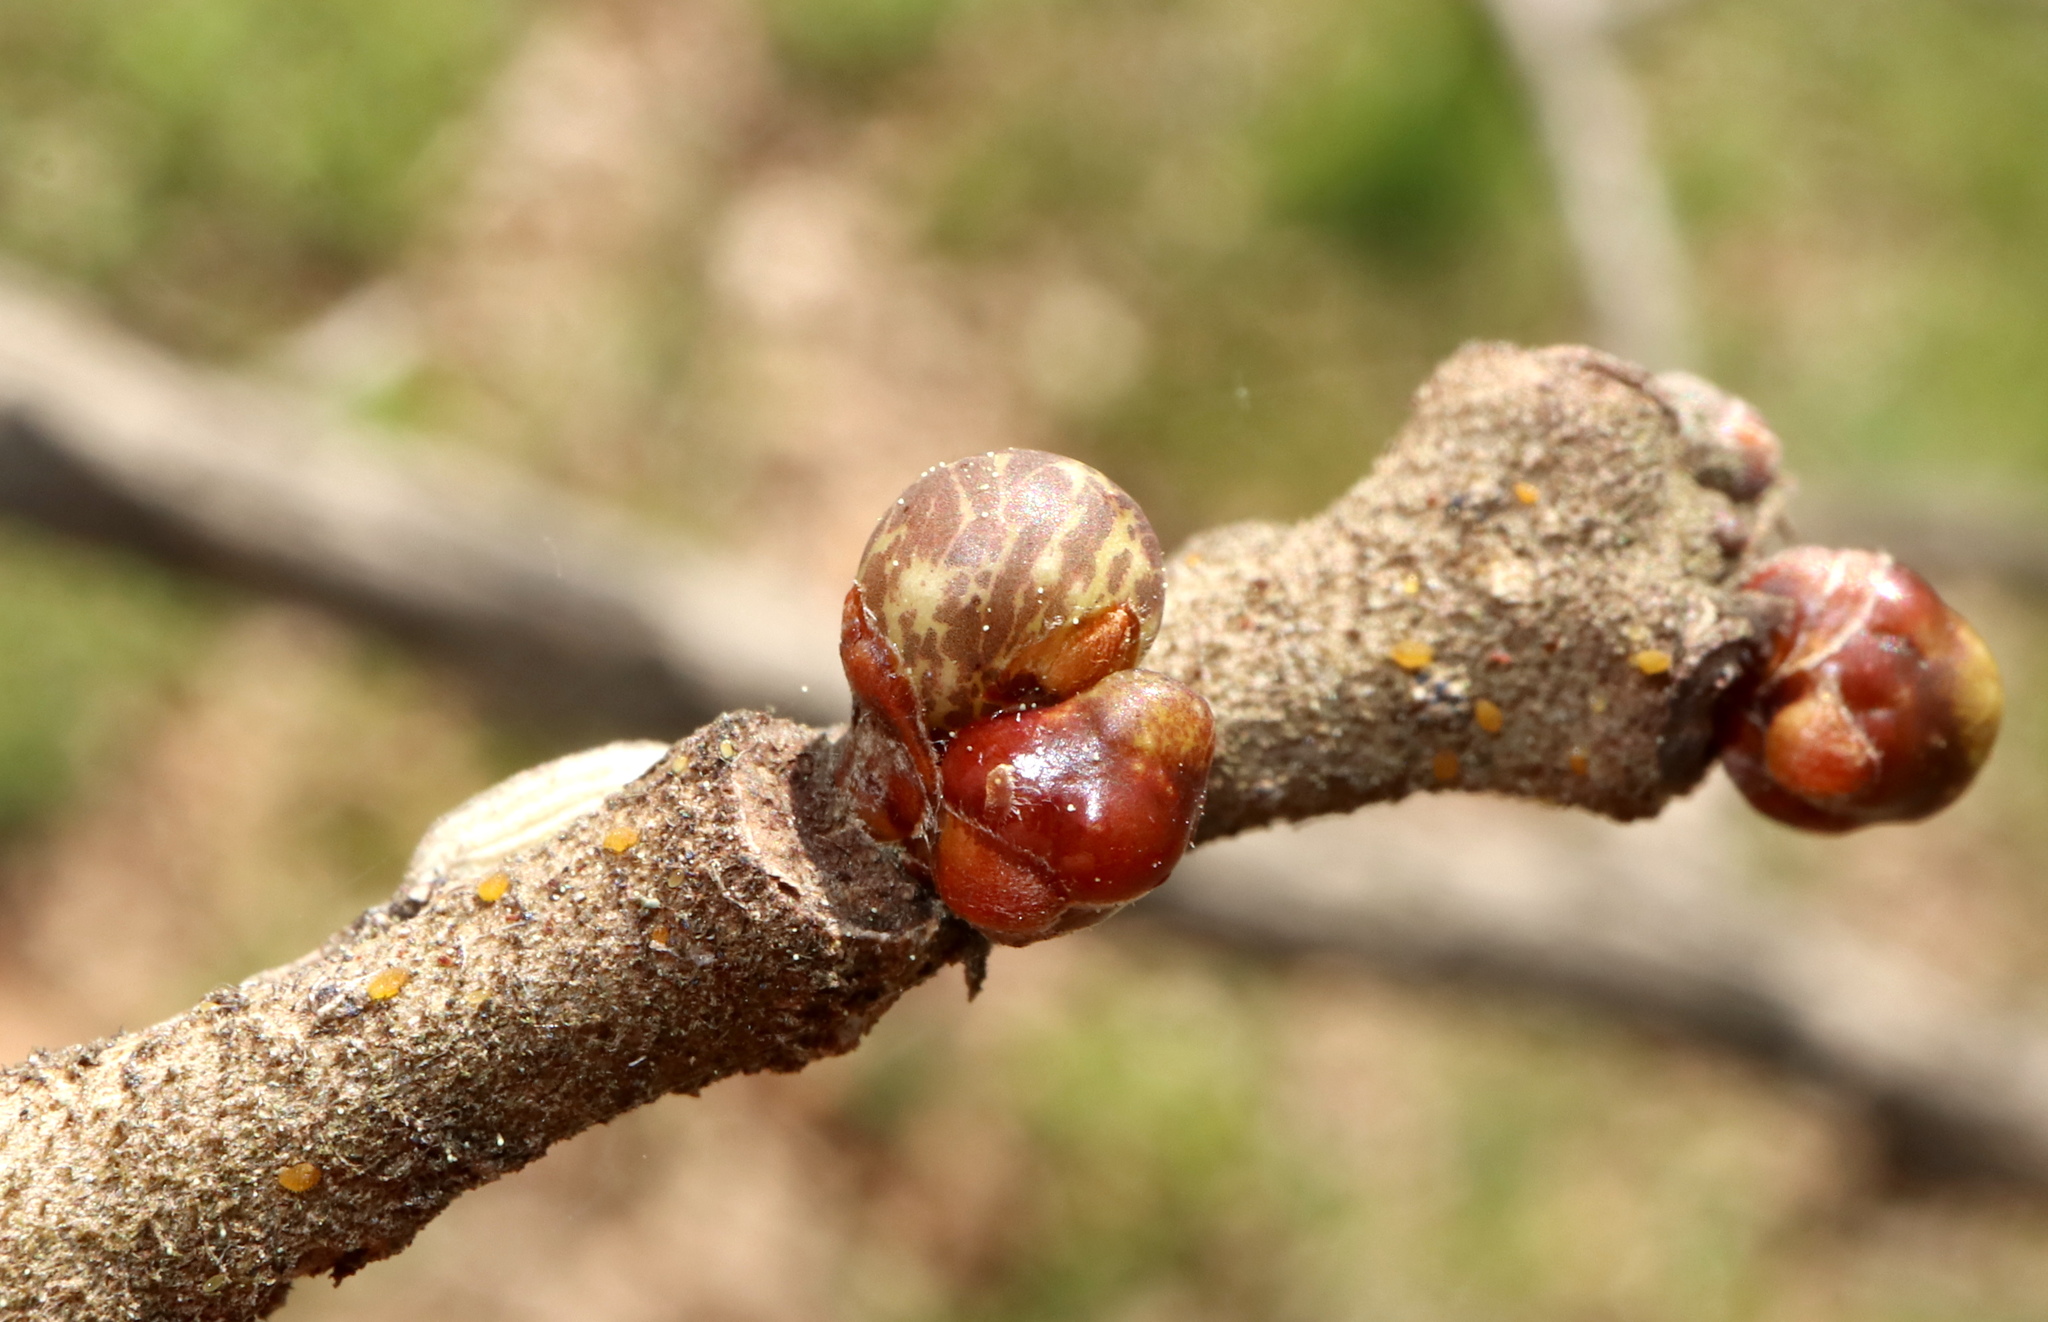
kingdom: Animalia
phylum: Arthropoda
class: Insecta
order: Hymenoptera
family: Cynipidae
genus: Neuroterus
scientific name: Neuroterus
